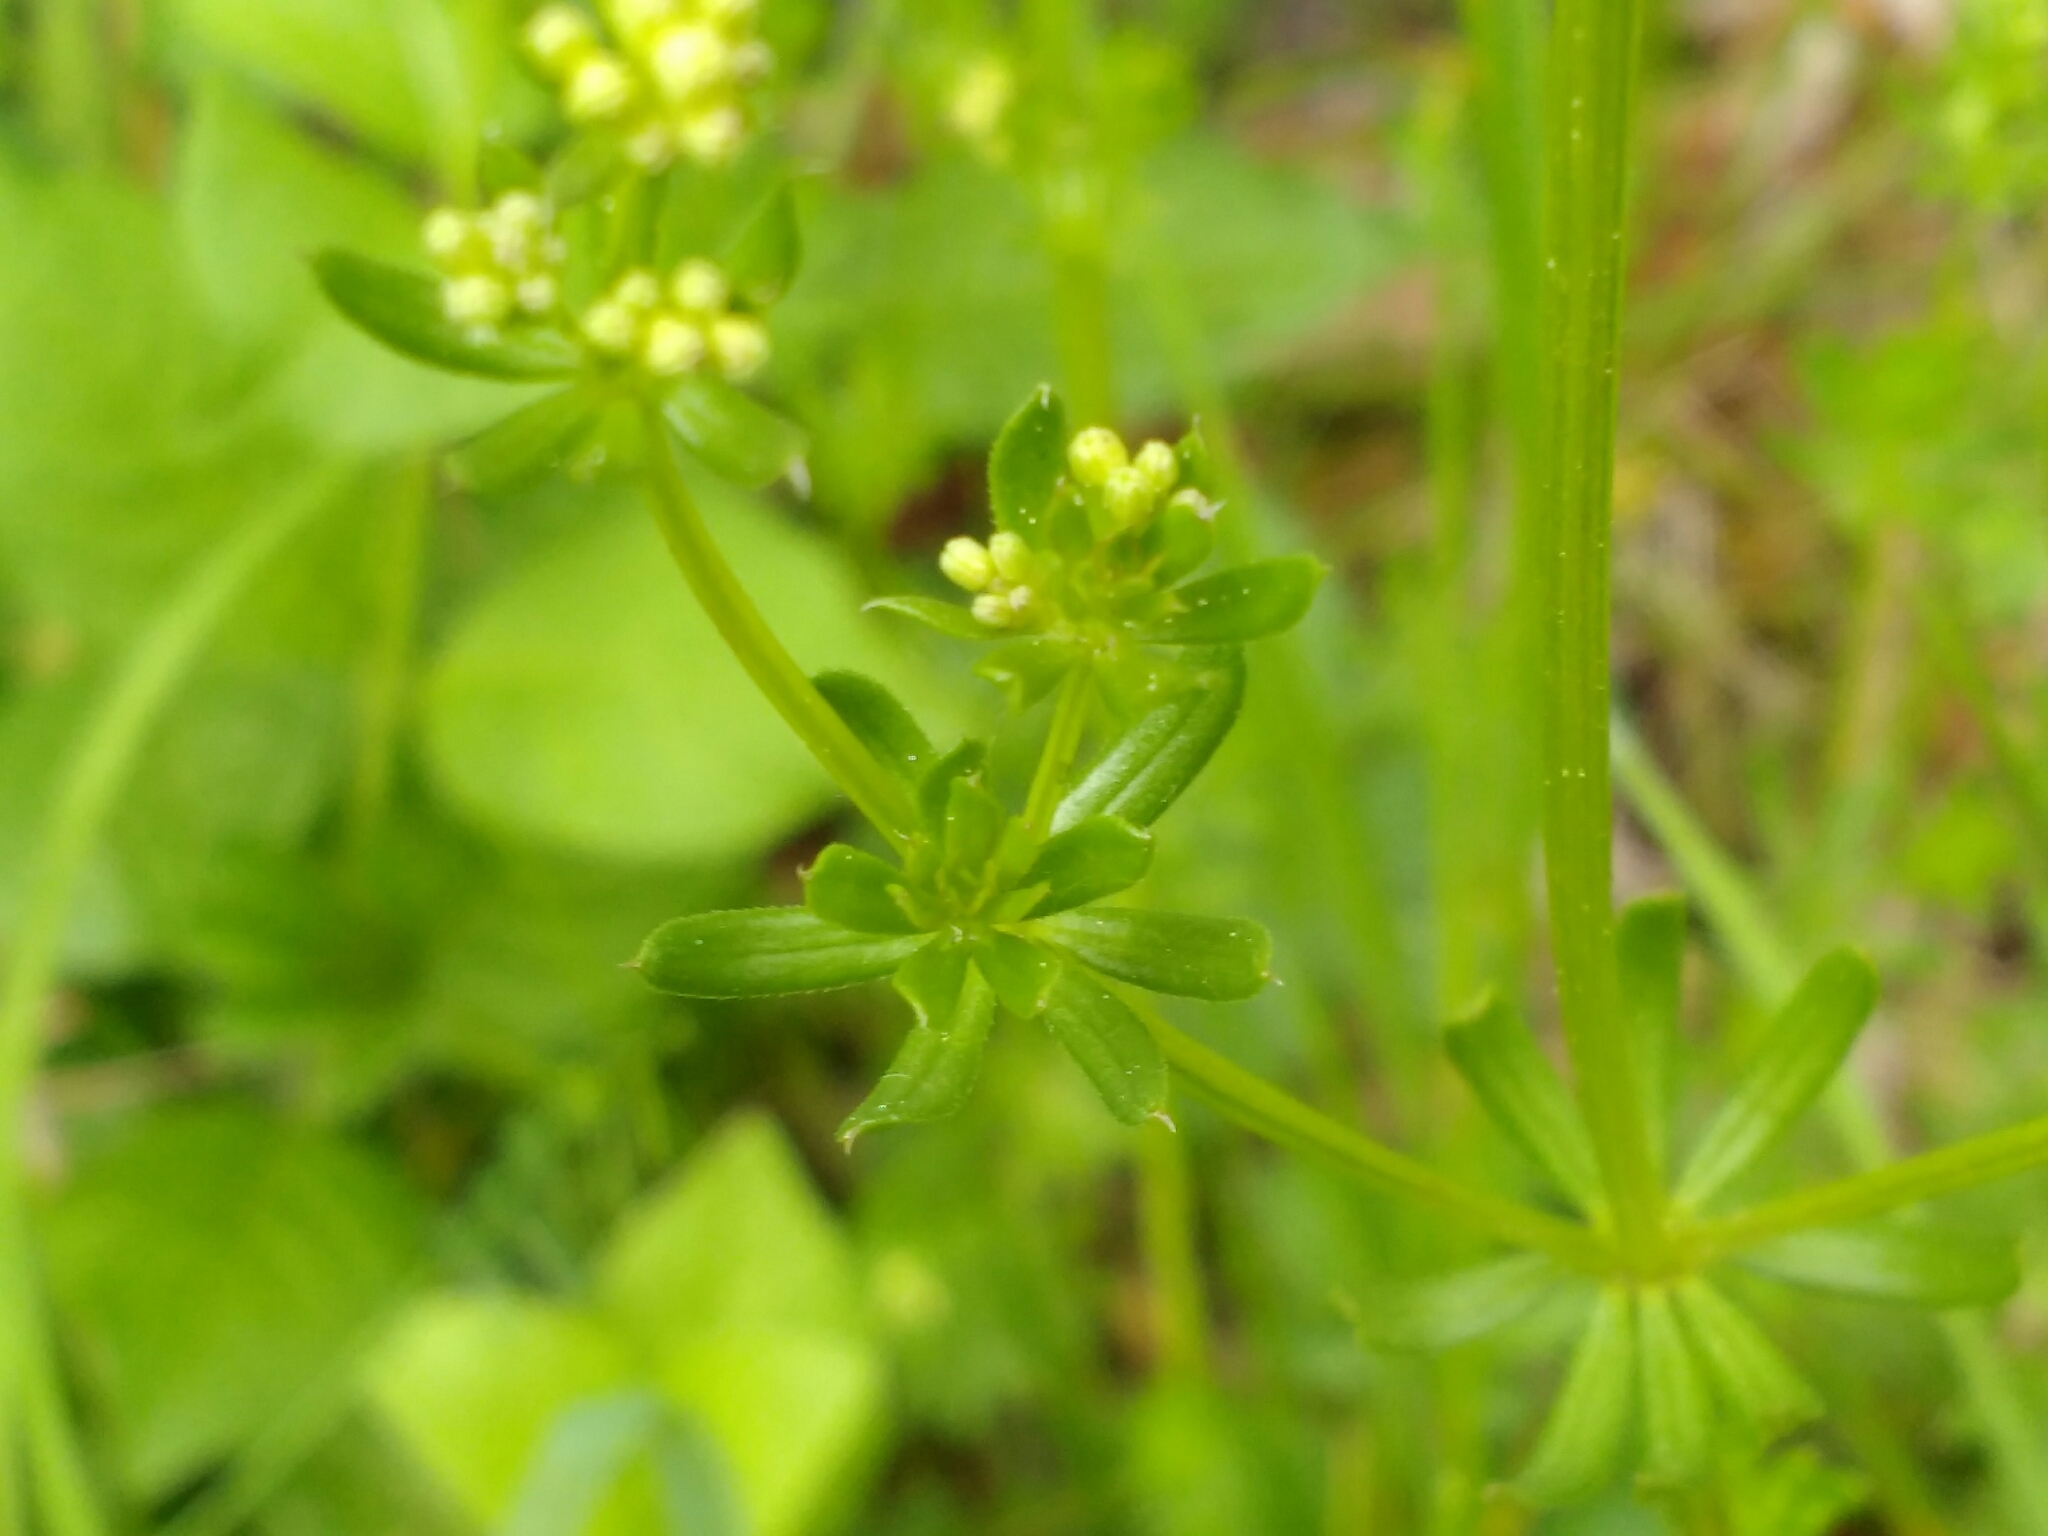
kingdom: Plantae
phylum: Tracheophyta
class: Magnoliopsida
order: Gentianales
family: Rubiaceae
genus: Galium
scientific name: Galium mollugo
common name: Hedge bedstraw
